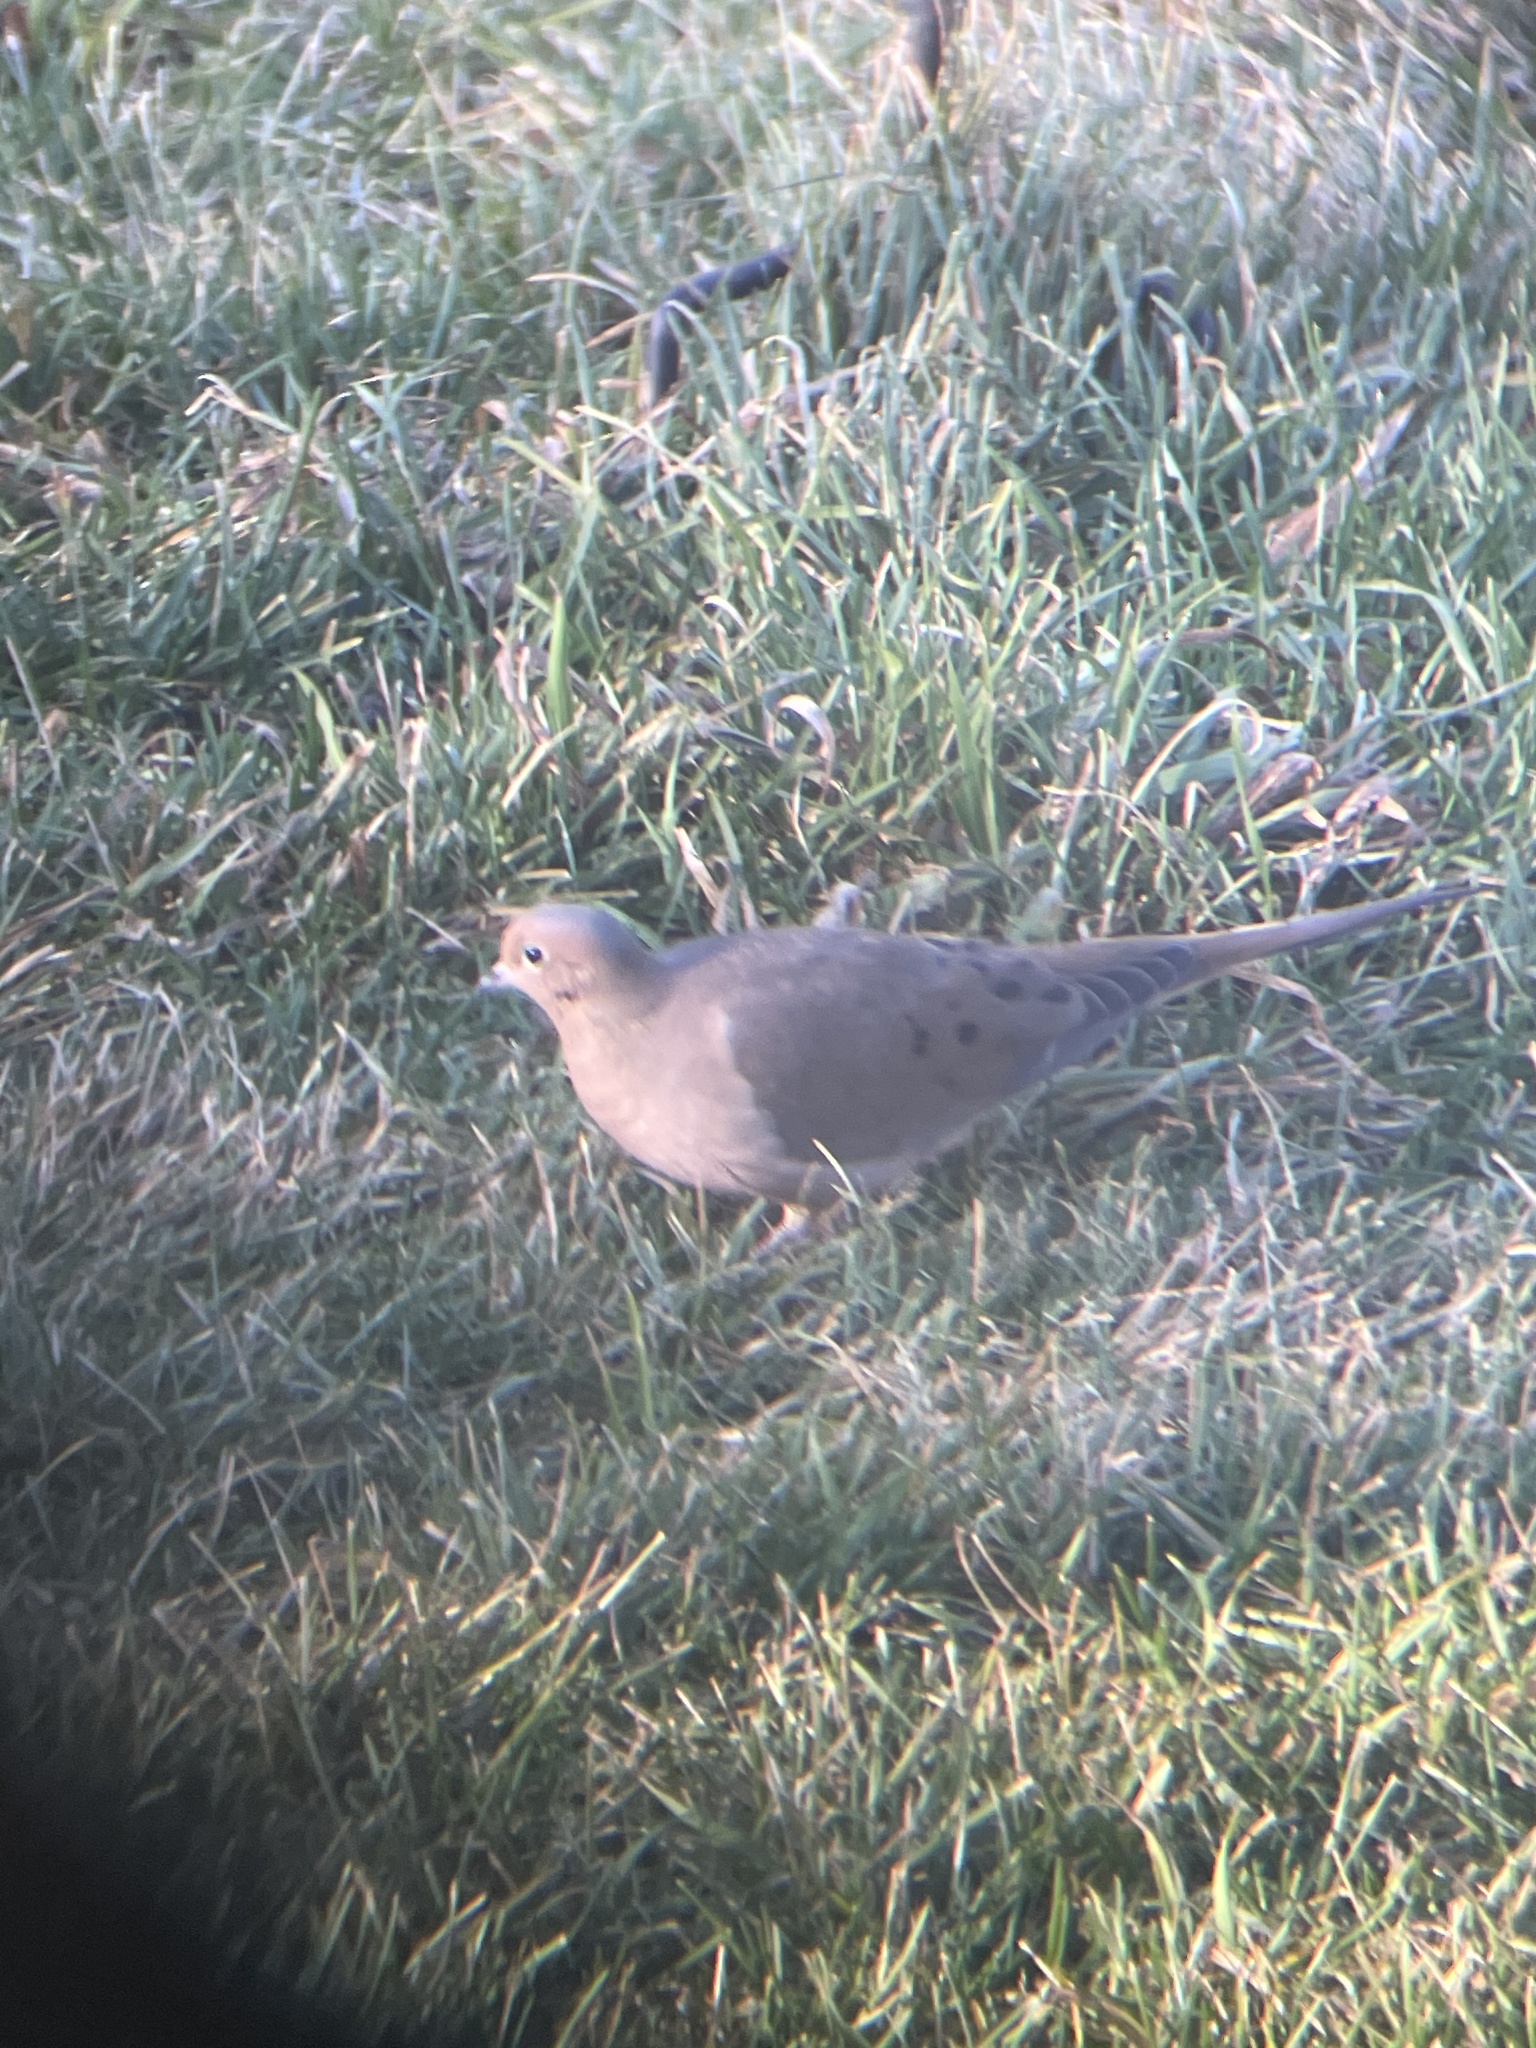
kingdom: Animalia
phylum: Chordata
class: Aves
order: Columbiformes
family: Columbidae
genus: Zenaida
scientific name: Zenaida macroura
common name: Mourning dove
